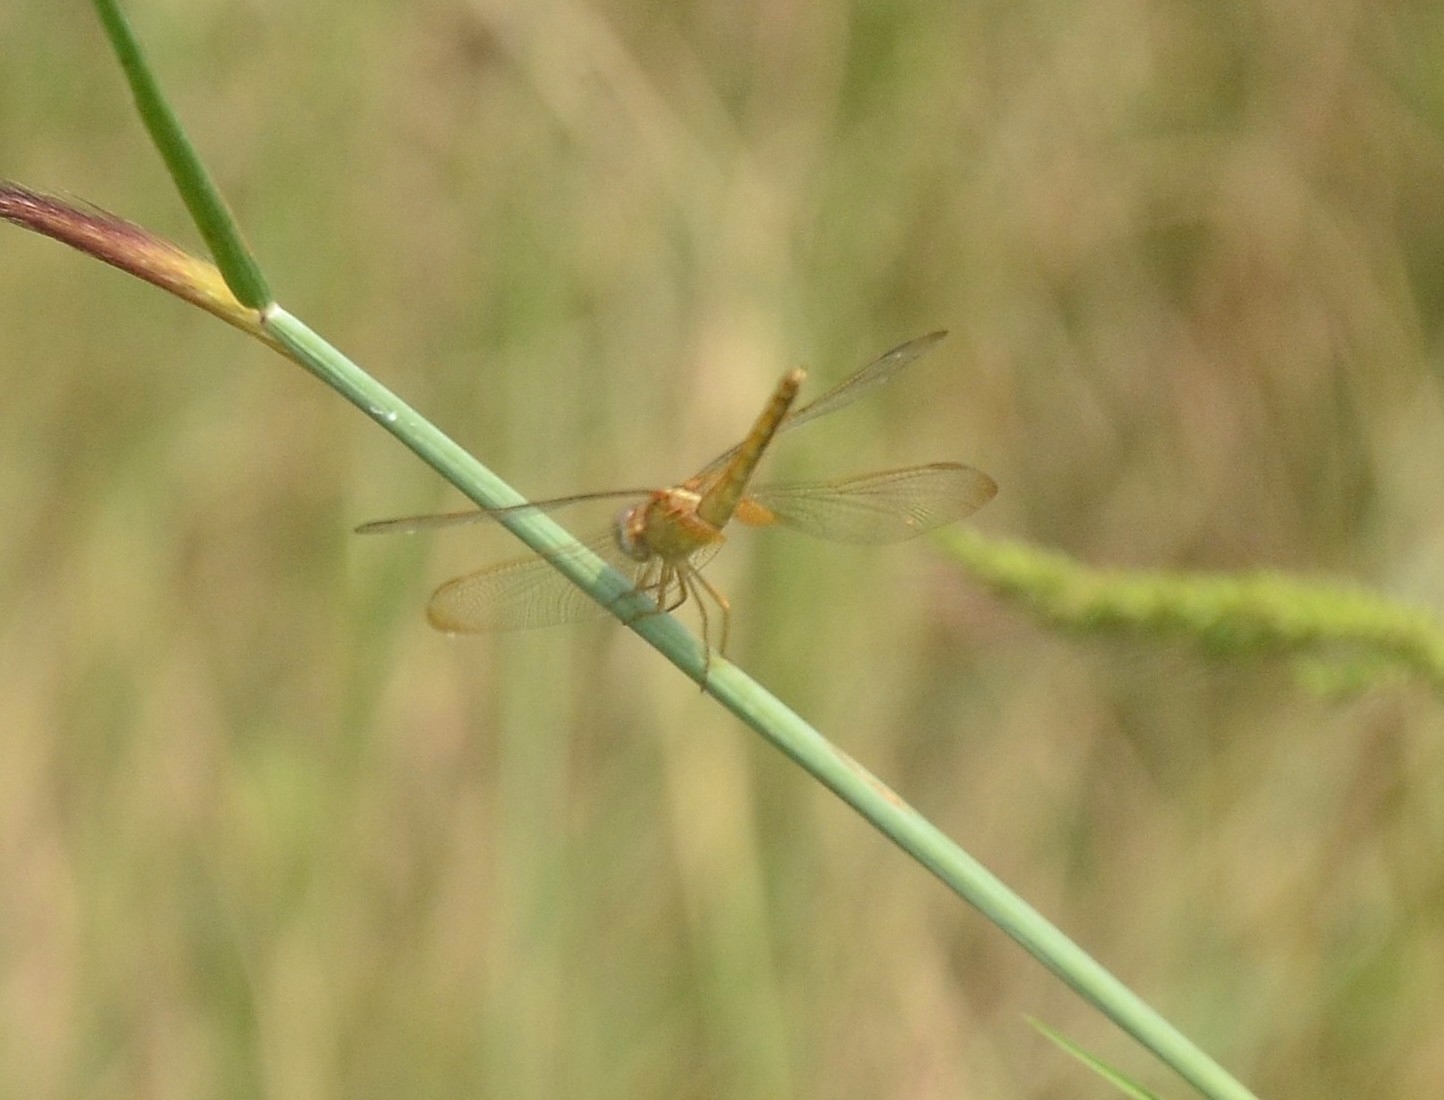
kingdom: Animalia
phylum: Arthropoda
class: Insecta
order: Odonata
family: Libellulidae
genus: Crocothemis
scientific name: Crocothemis servilia
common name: Scarlet skimmer
